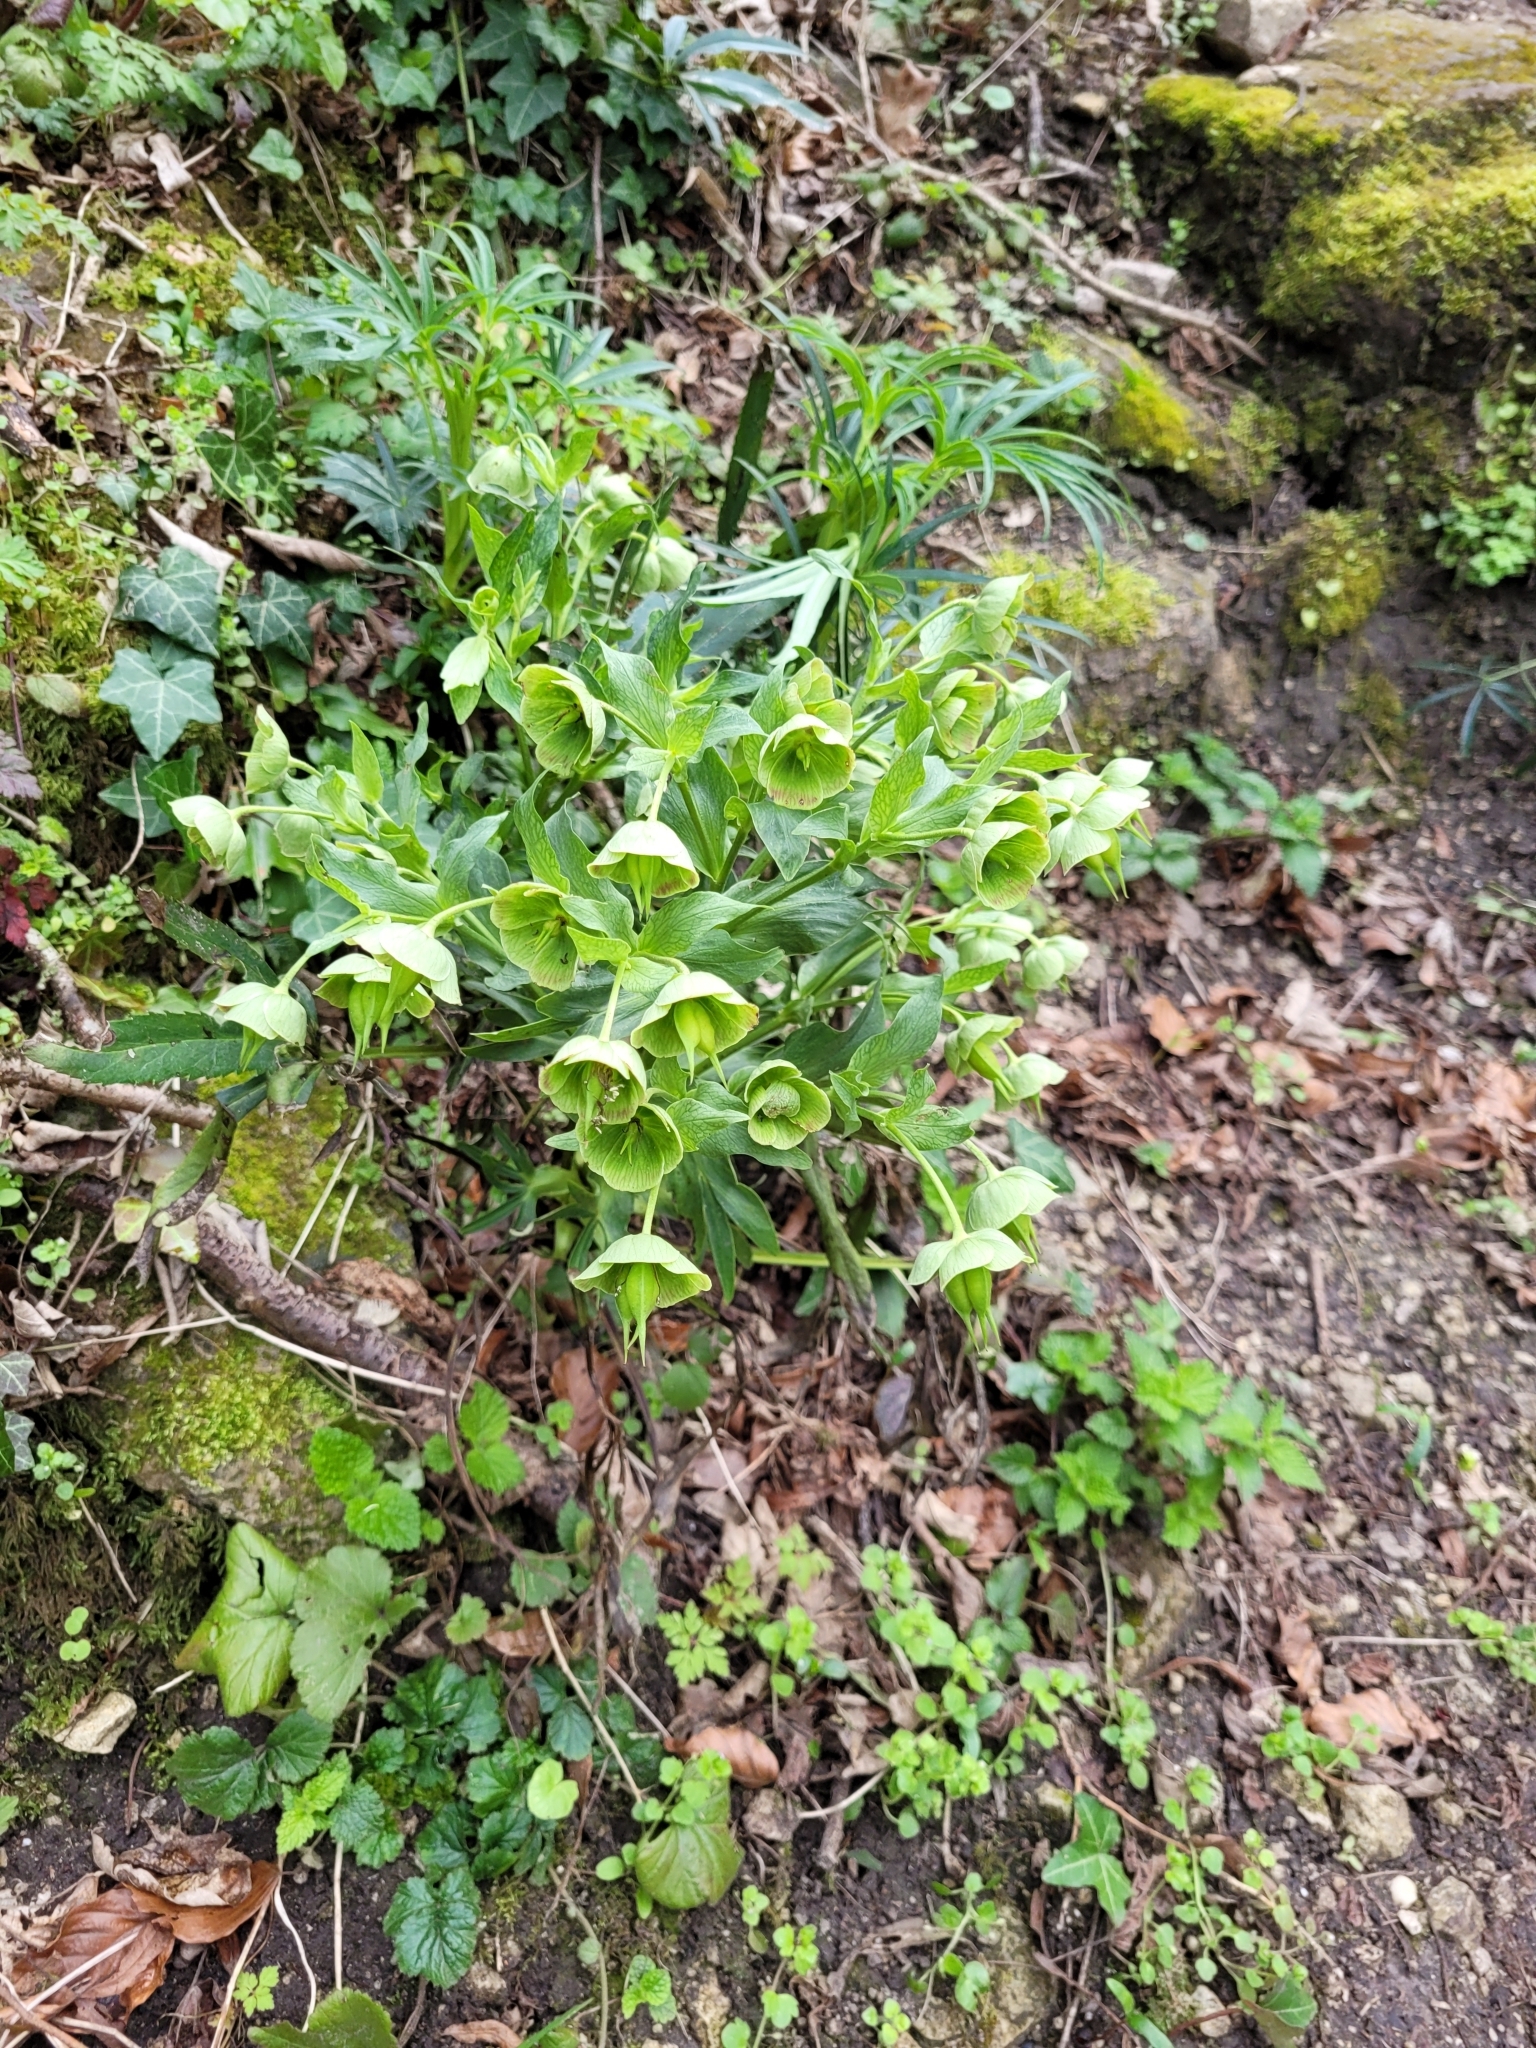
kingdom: Plantae
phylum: Tracheophyta
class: Magnoliopsida
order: Ranunculales
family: Ranunculaceae
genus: Helleborus
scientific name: Helleborus foetidus
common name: Stinking hellebore
